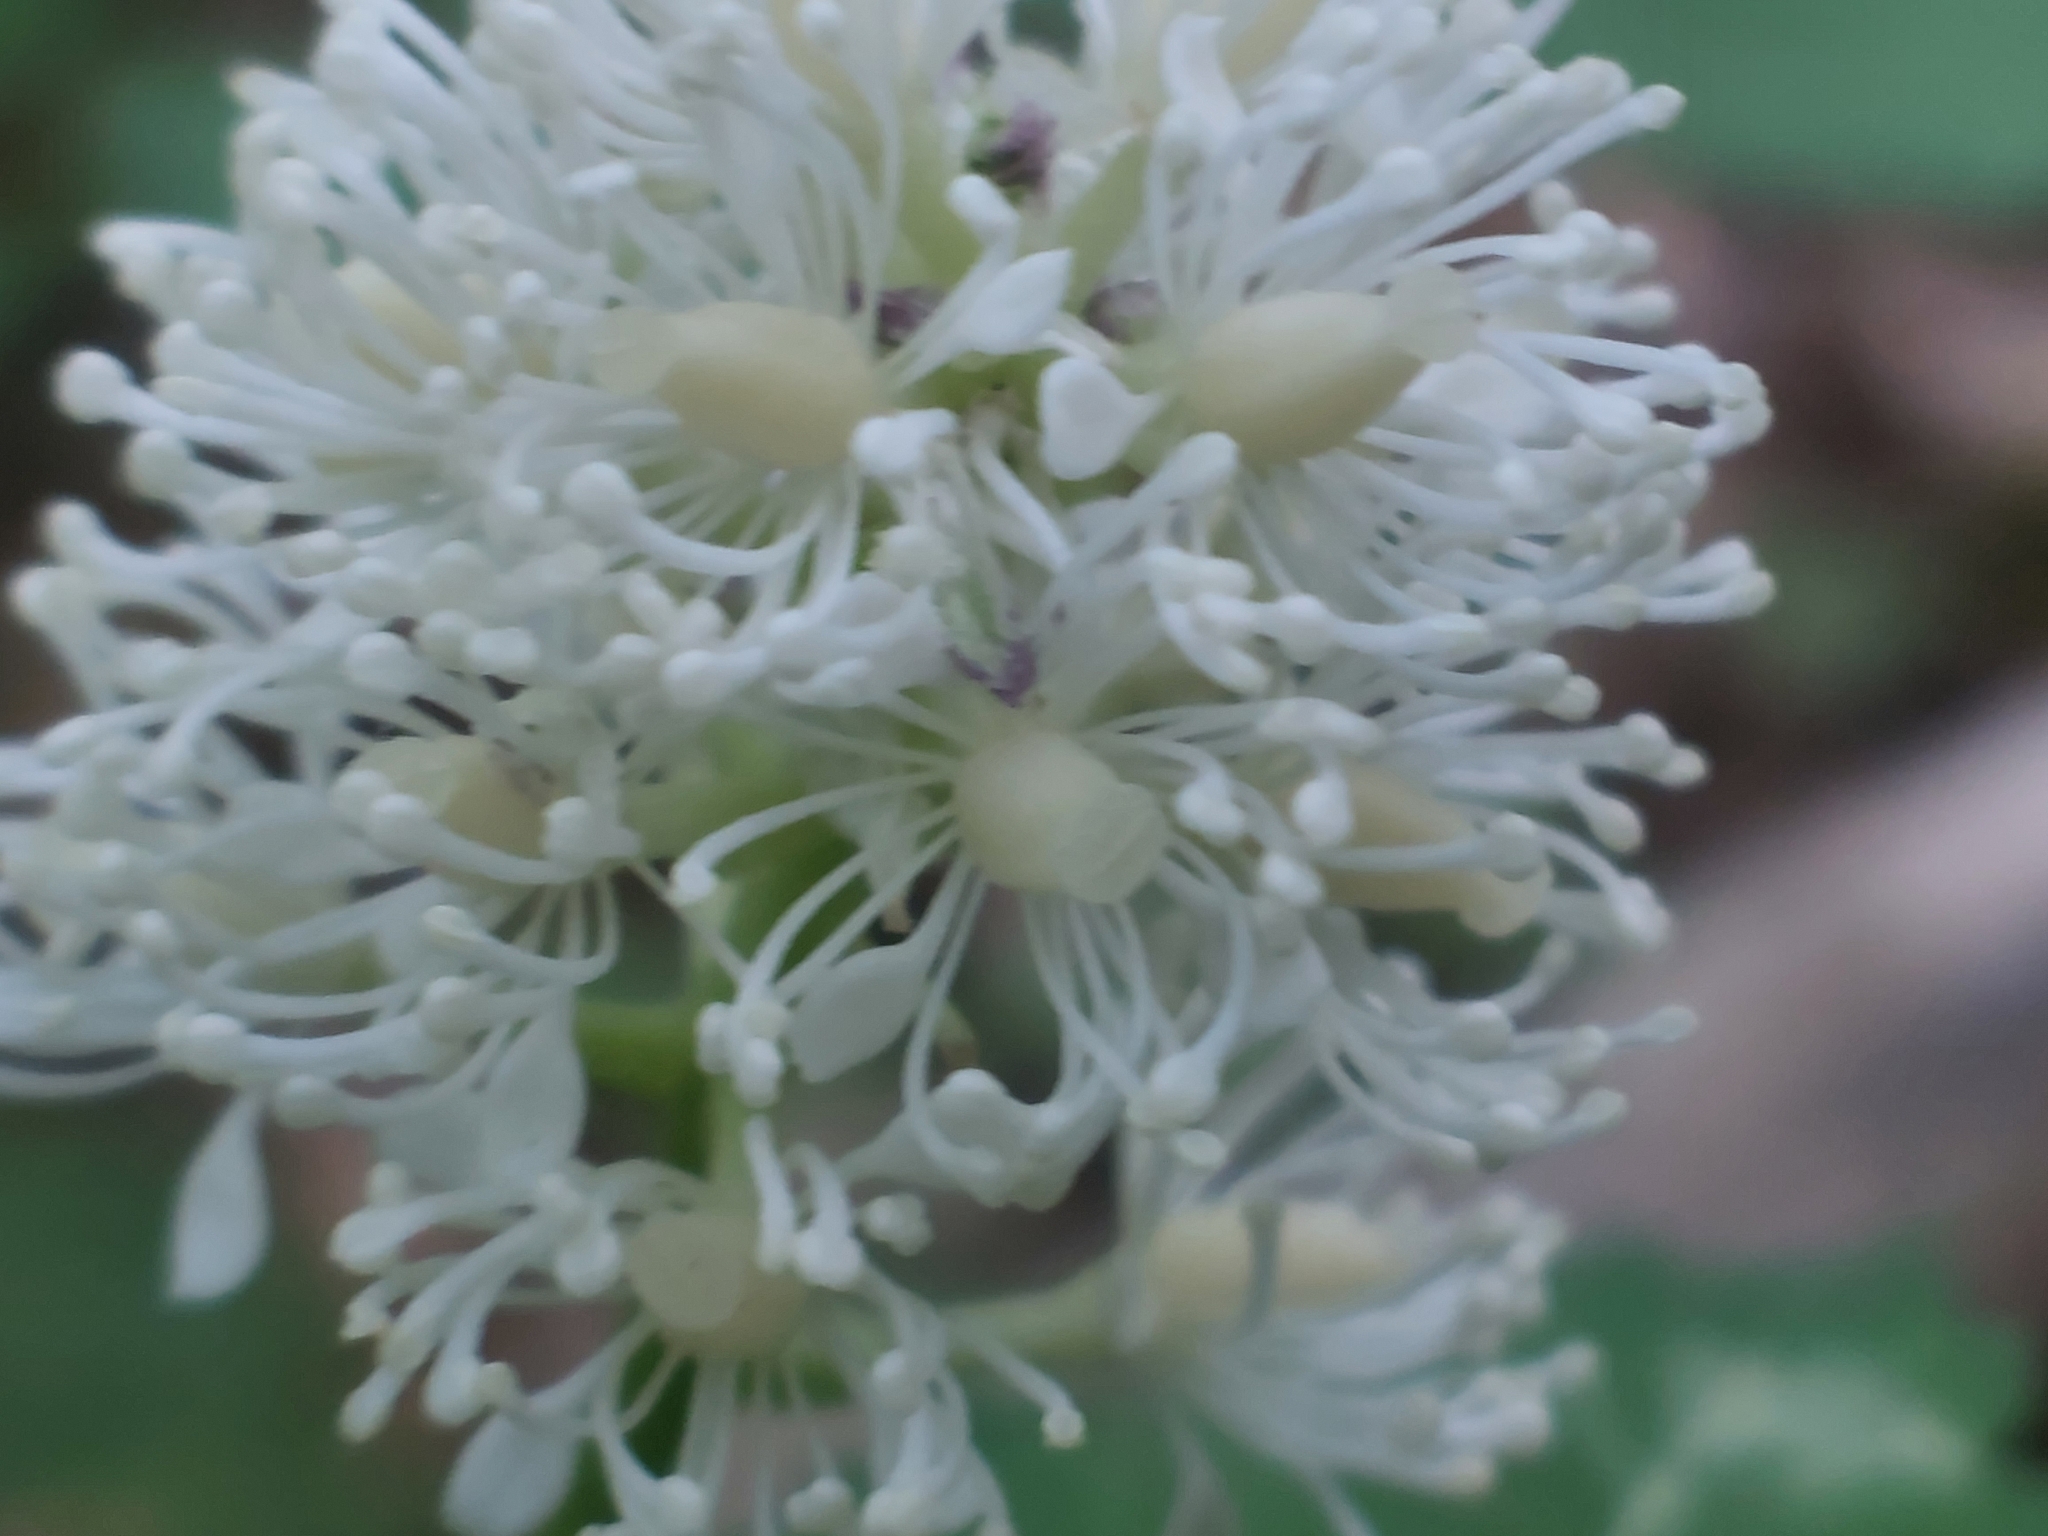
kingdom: Plantae
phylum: Tracheophyta
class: Magnoliopsida
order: Ranunculales
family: Ranunculaceae
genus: Actaea
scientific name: Actaea spicata
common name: Baneberry
